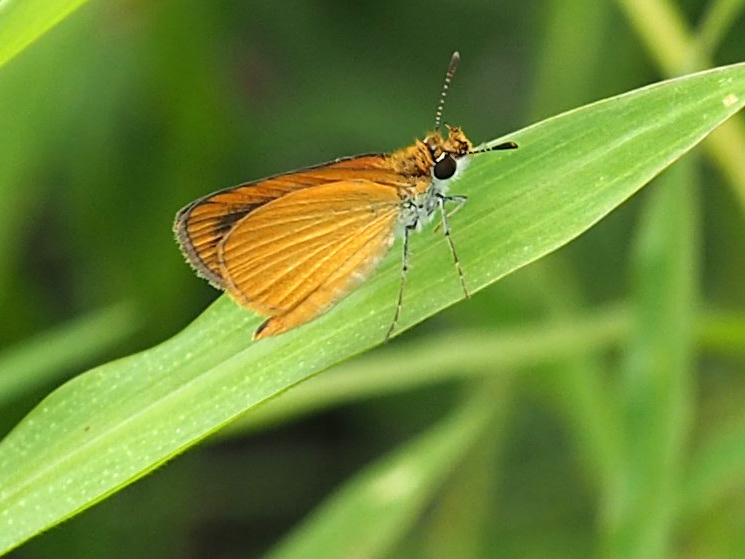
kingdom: Animalia
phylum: Arthropoda
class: Insecta
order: Lepidoptera
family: Hesperiidae
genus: Ancyloxypha
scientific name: Ancyloxypha numitor
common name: Least skipper
